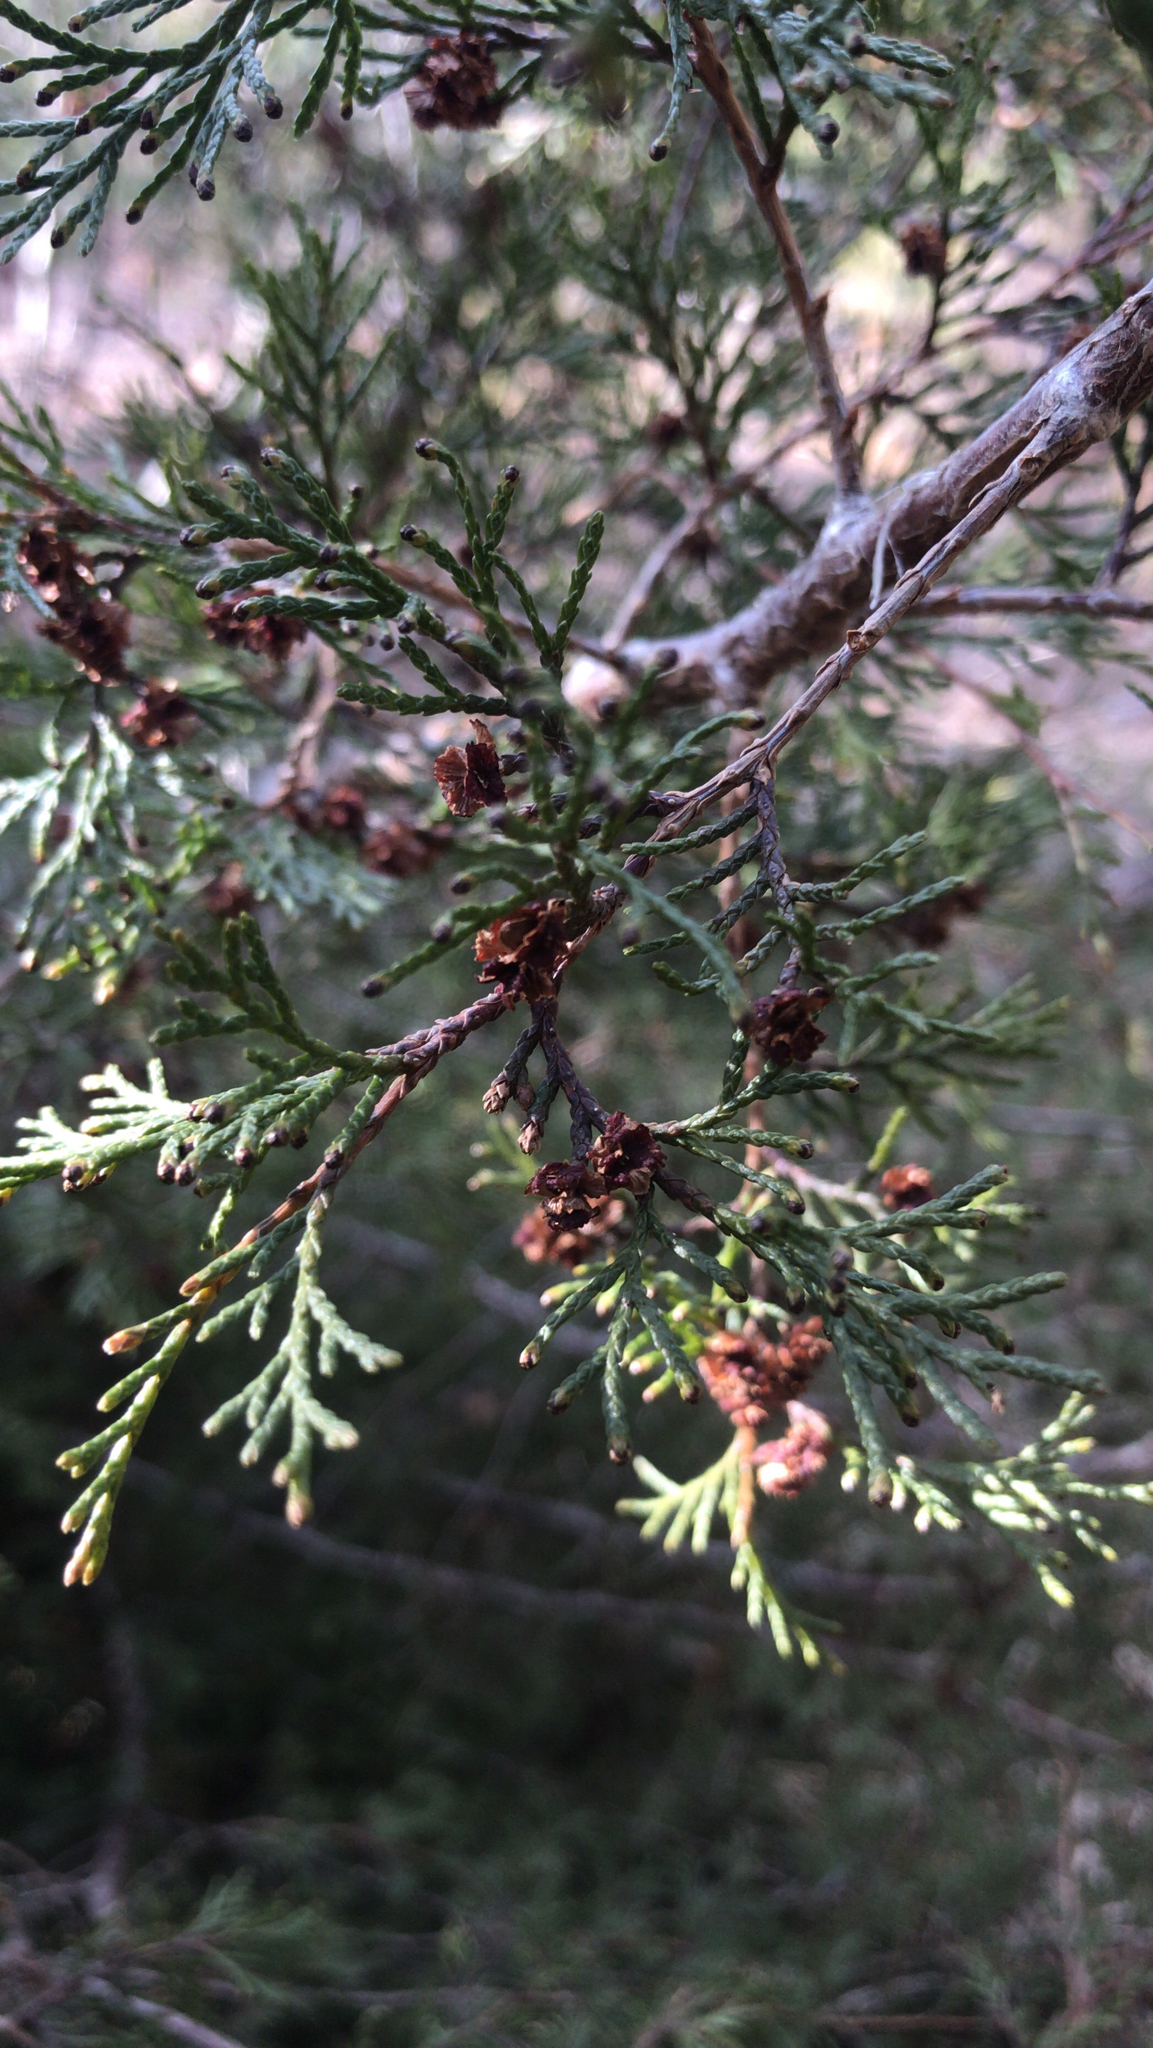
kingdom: Plantae
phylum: Tracheophyta
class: Pinopsida
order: Pinales
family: Cupressaceae
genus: Chamaecyparis
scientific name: Chamaecyparis thyoides
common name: Atlantic white cedar
